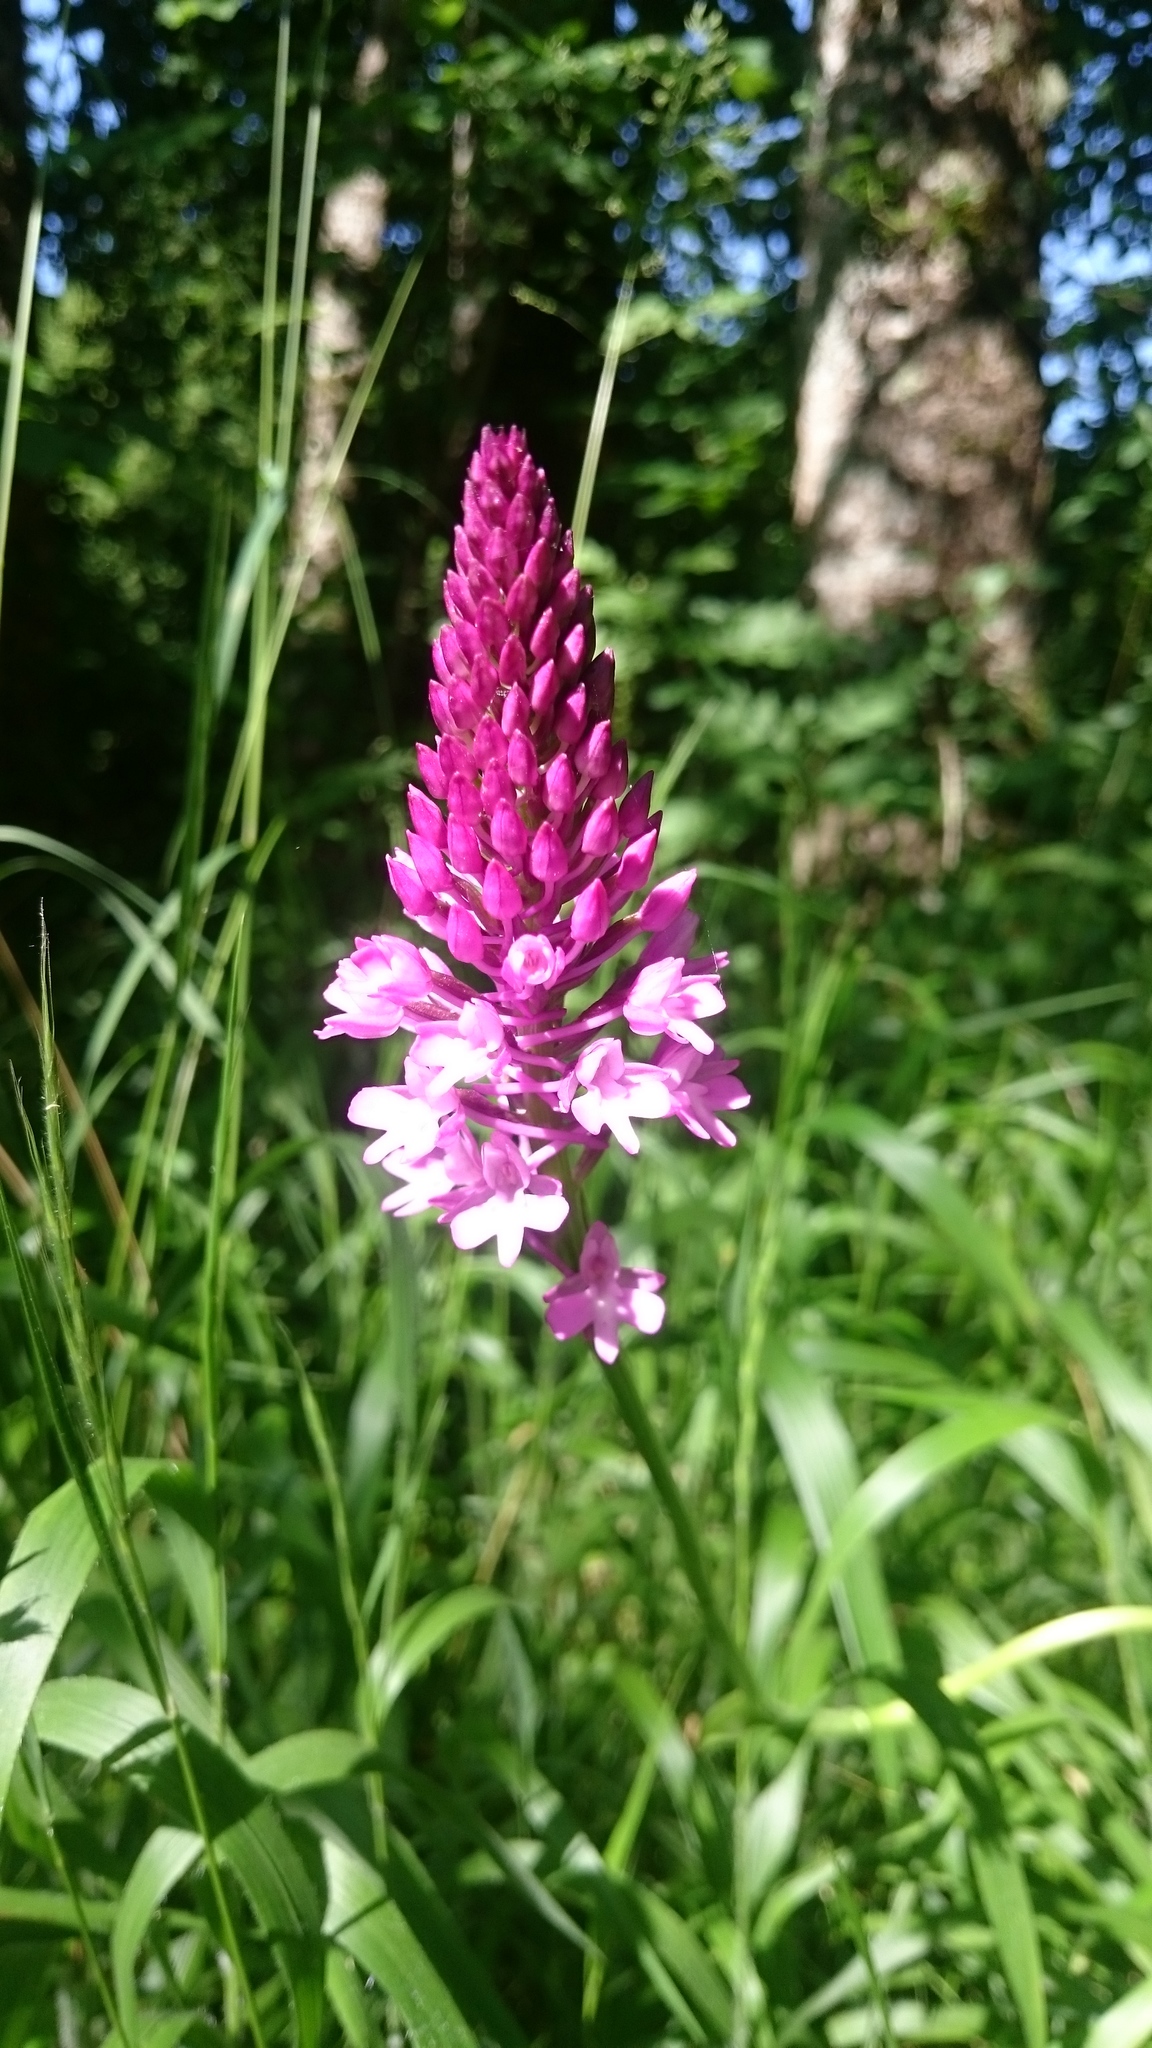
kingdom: Plantae
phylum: Tracheophyta
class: Liliopsida
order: Asparagales
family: Orchidaceae
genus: Anacamptis
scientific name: Anacamptis pyramidalis
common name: Pyramidal orchid
